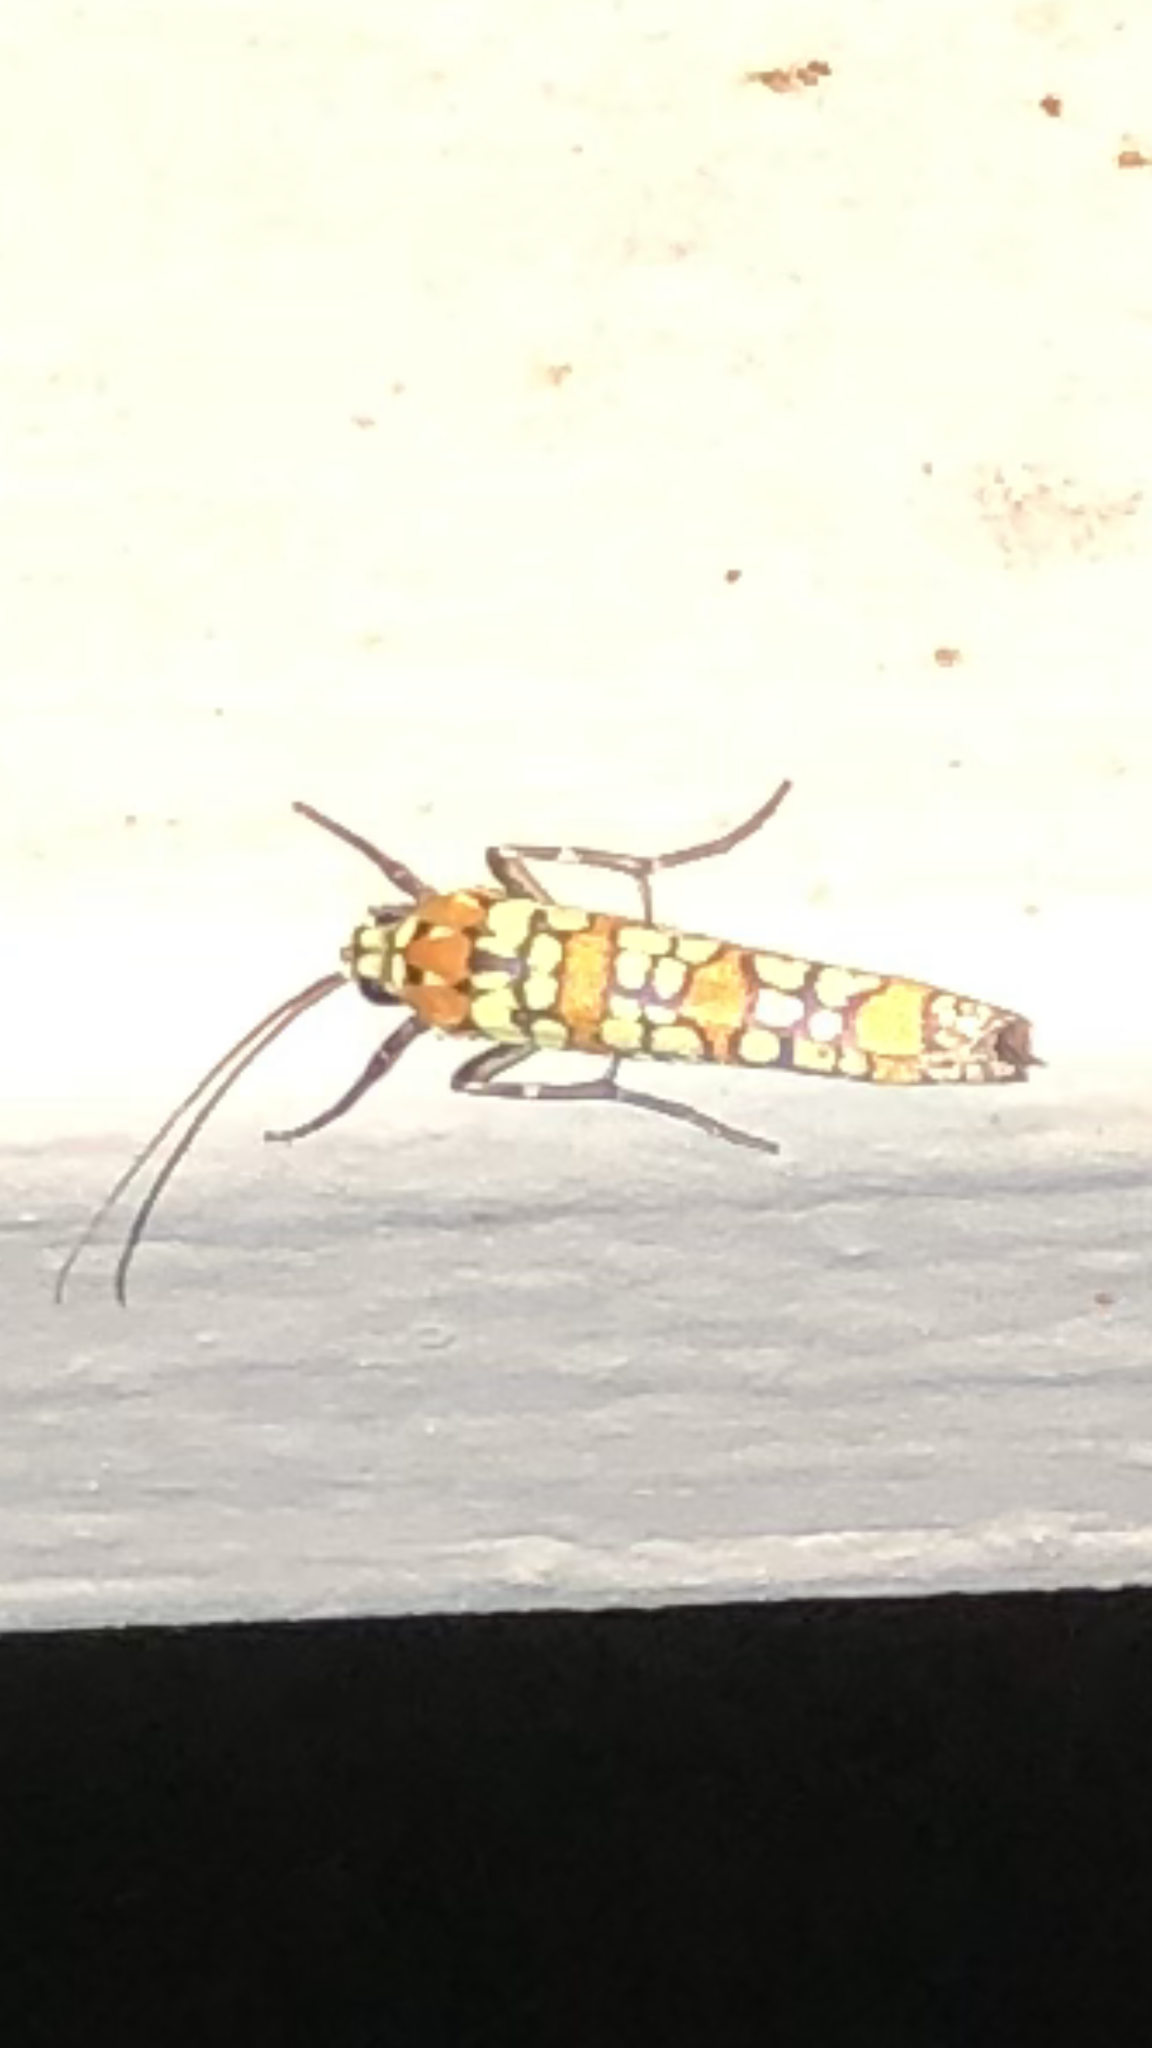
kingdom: Animalia
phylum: Arthropoda
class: Insecta
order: Lepidoptera
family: Attevidae
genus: Atteva
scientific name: Atteva punctella
